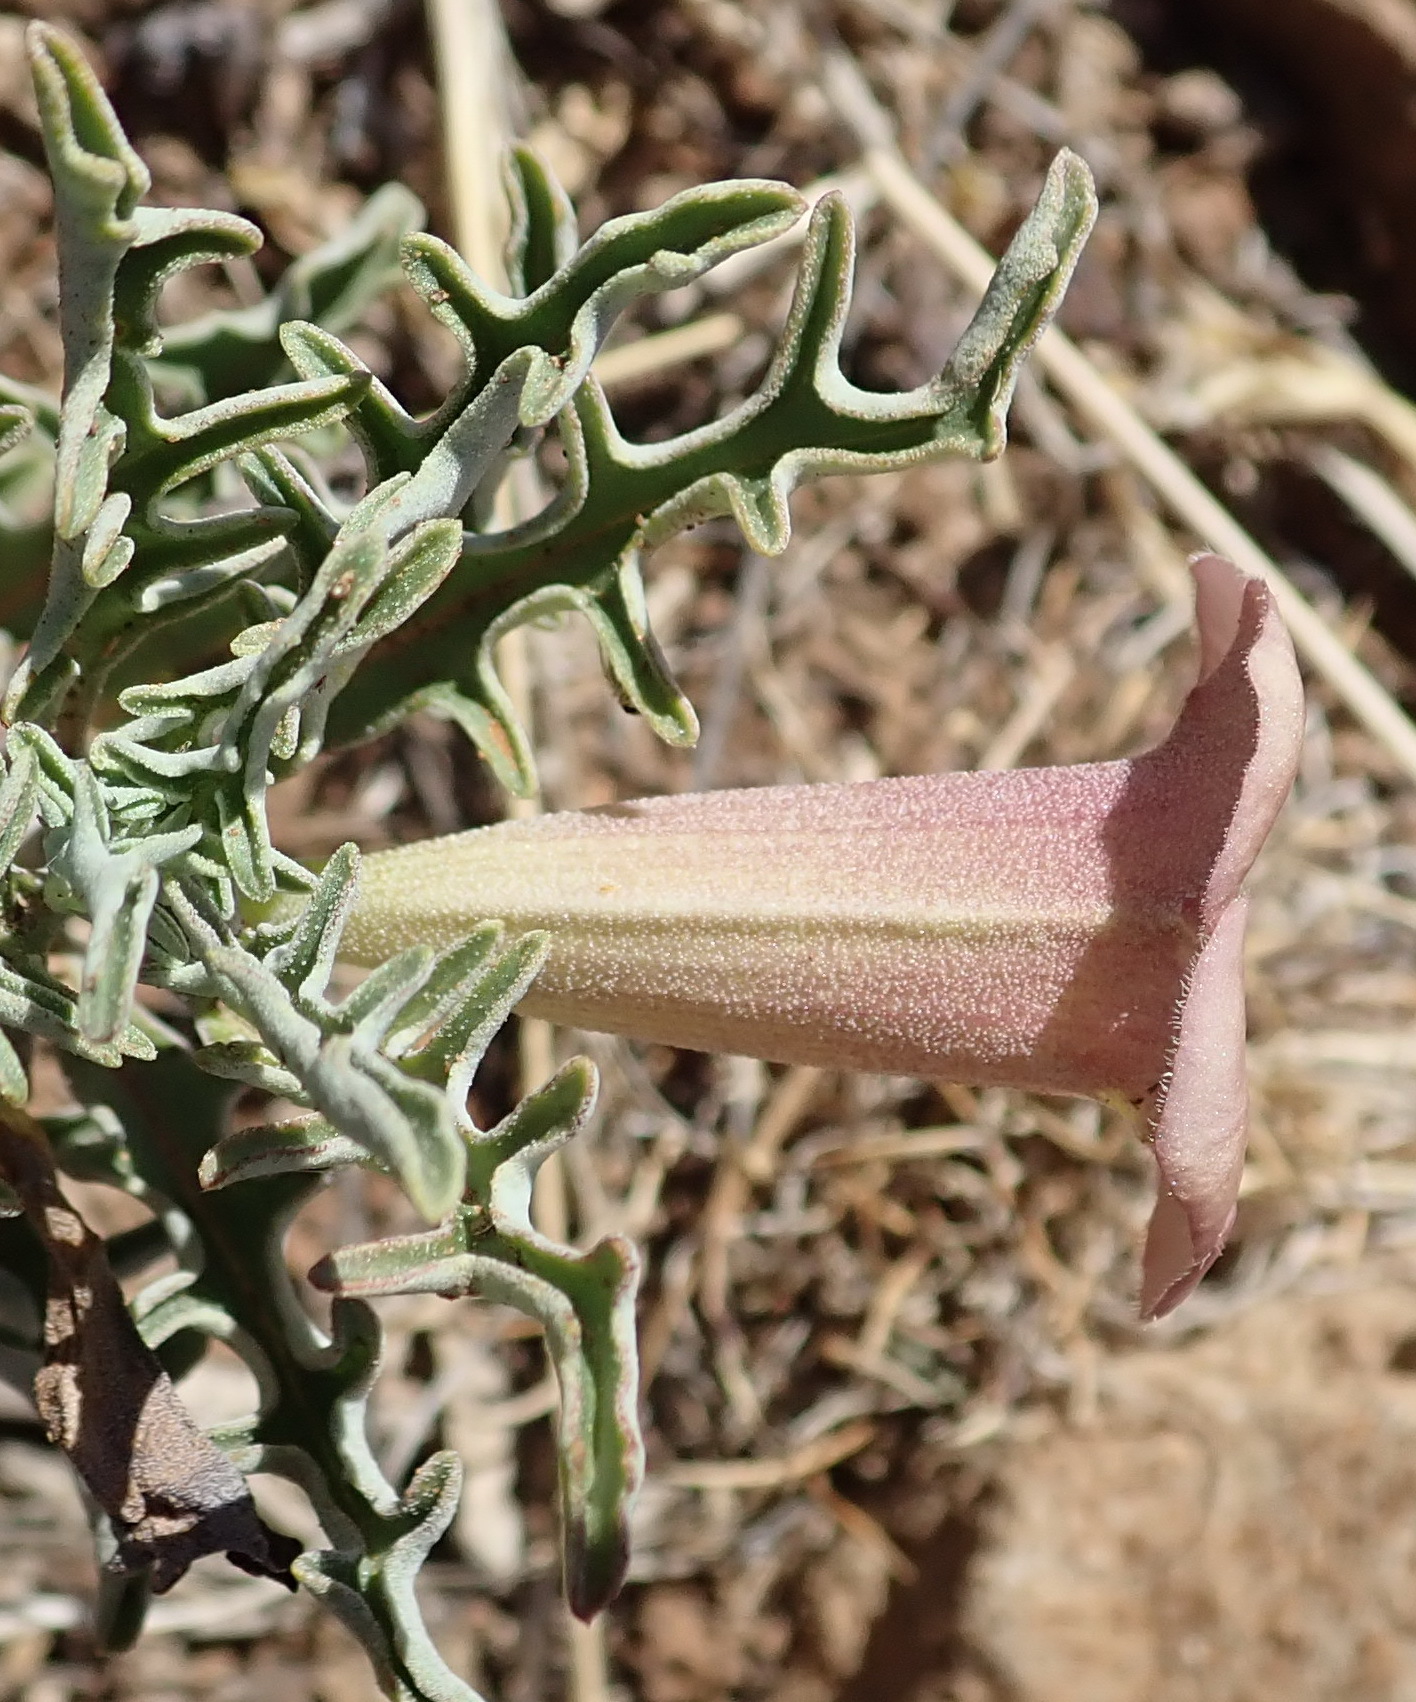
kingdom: Plantae
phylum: Tracheophyta
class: Magnoliopsida
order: Lamiales
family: Pedaliaceae
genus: Pterodiscus
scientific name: Pterodiscus luridus
